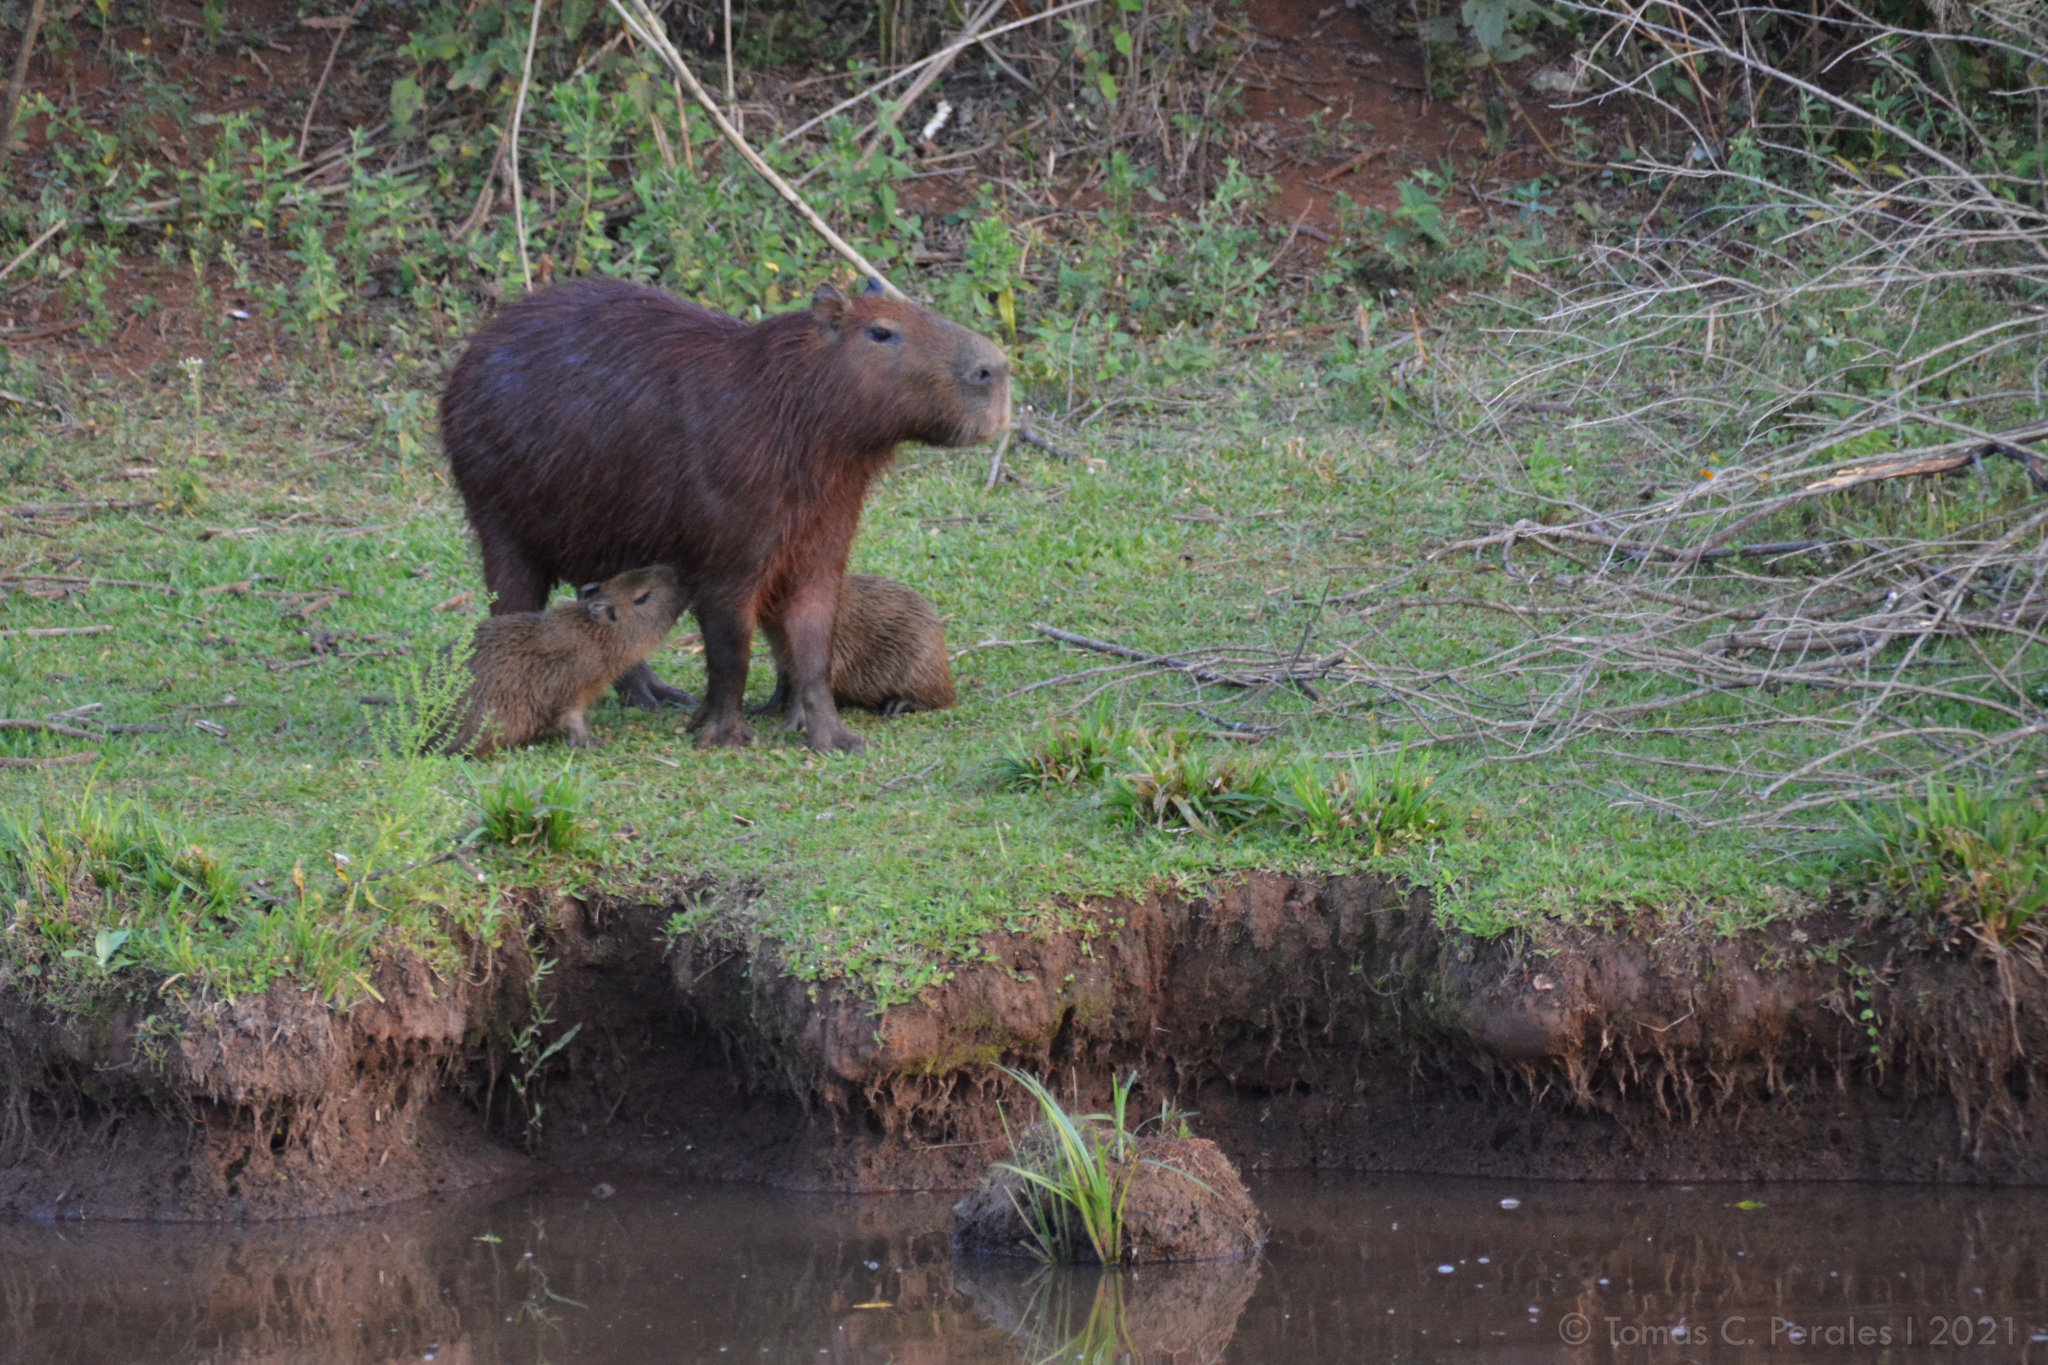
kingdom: Animalia
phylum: Chordata
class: Mammalia
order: Rodentia
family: Caviidae
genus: Hydrochoerus
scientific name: Hydrochoerus hydrochaeris
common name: Capybara
